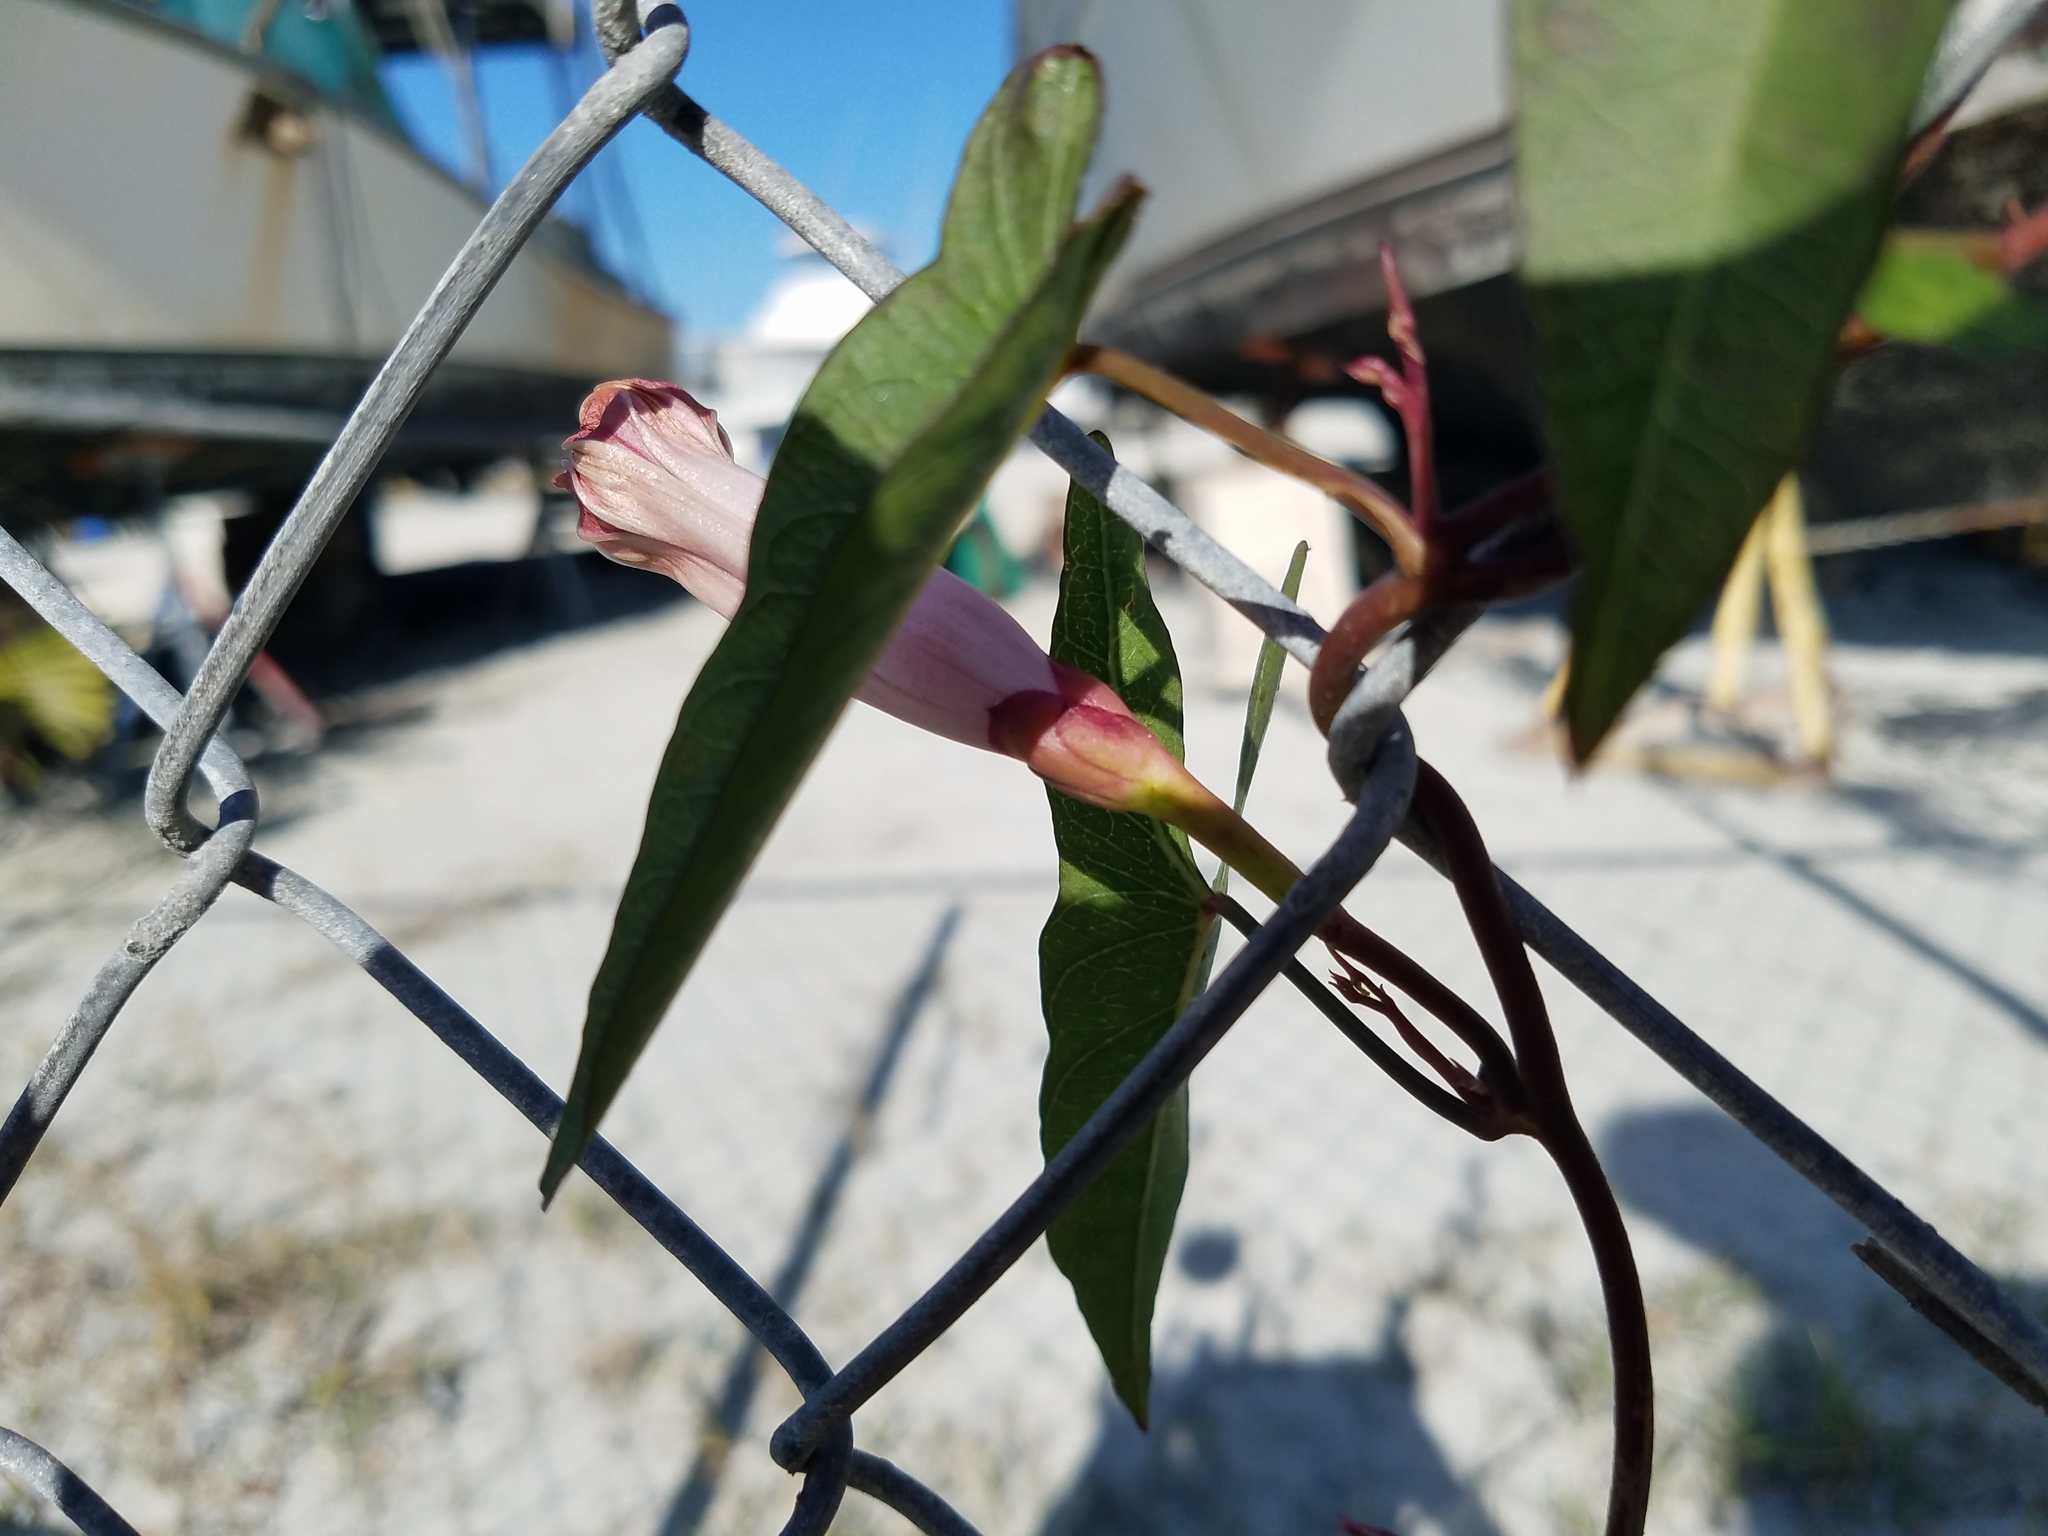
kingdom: Plantae
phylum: Tracheophyta
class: Magnoliopsida
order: Solanales
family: Convolvulaceae
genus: Ipomoea
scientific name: Ipomoea sagittata
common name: Saltmarsh morning glory
